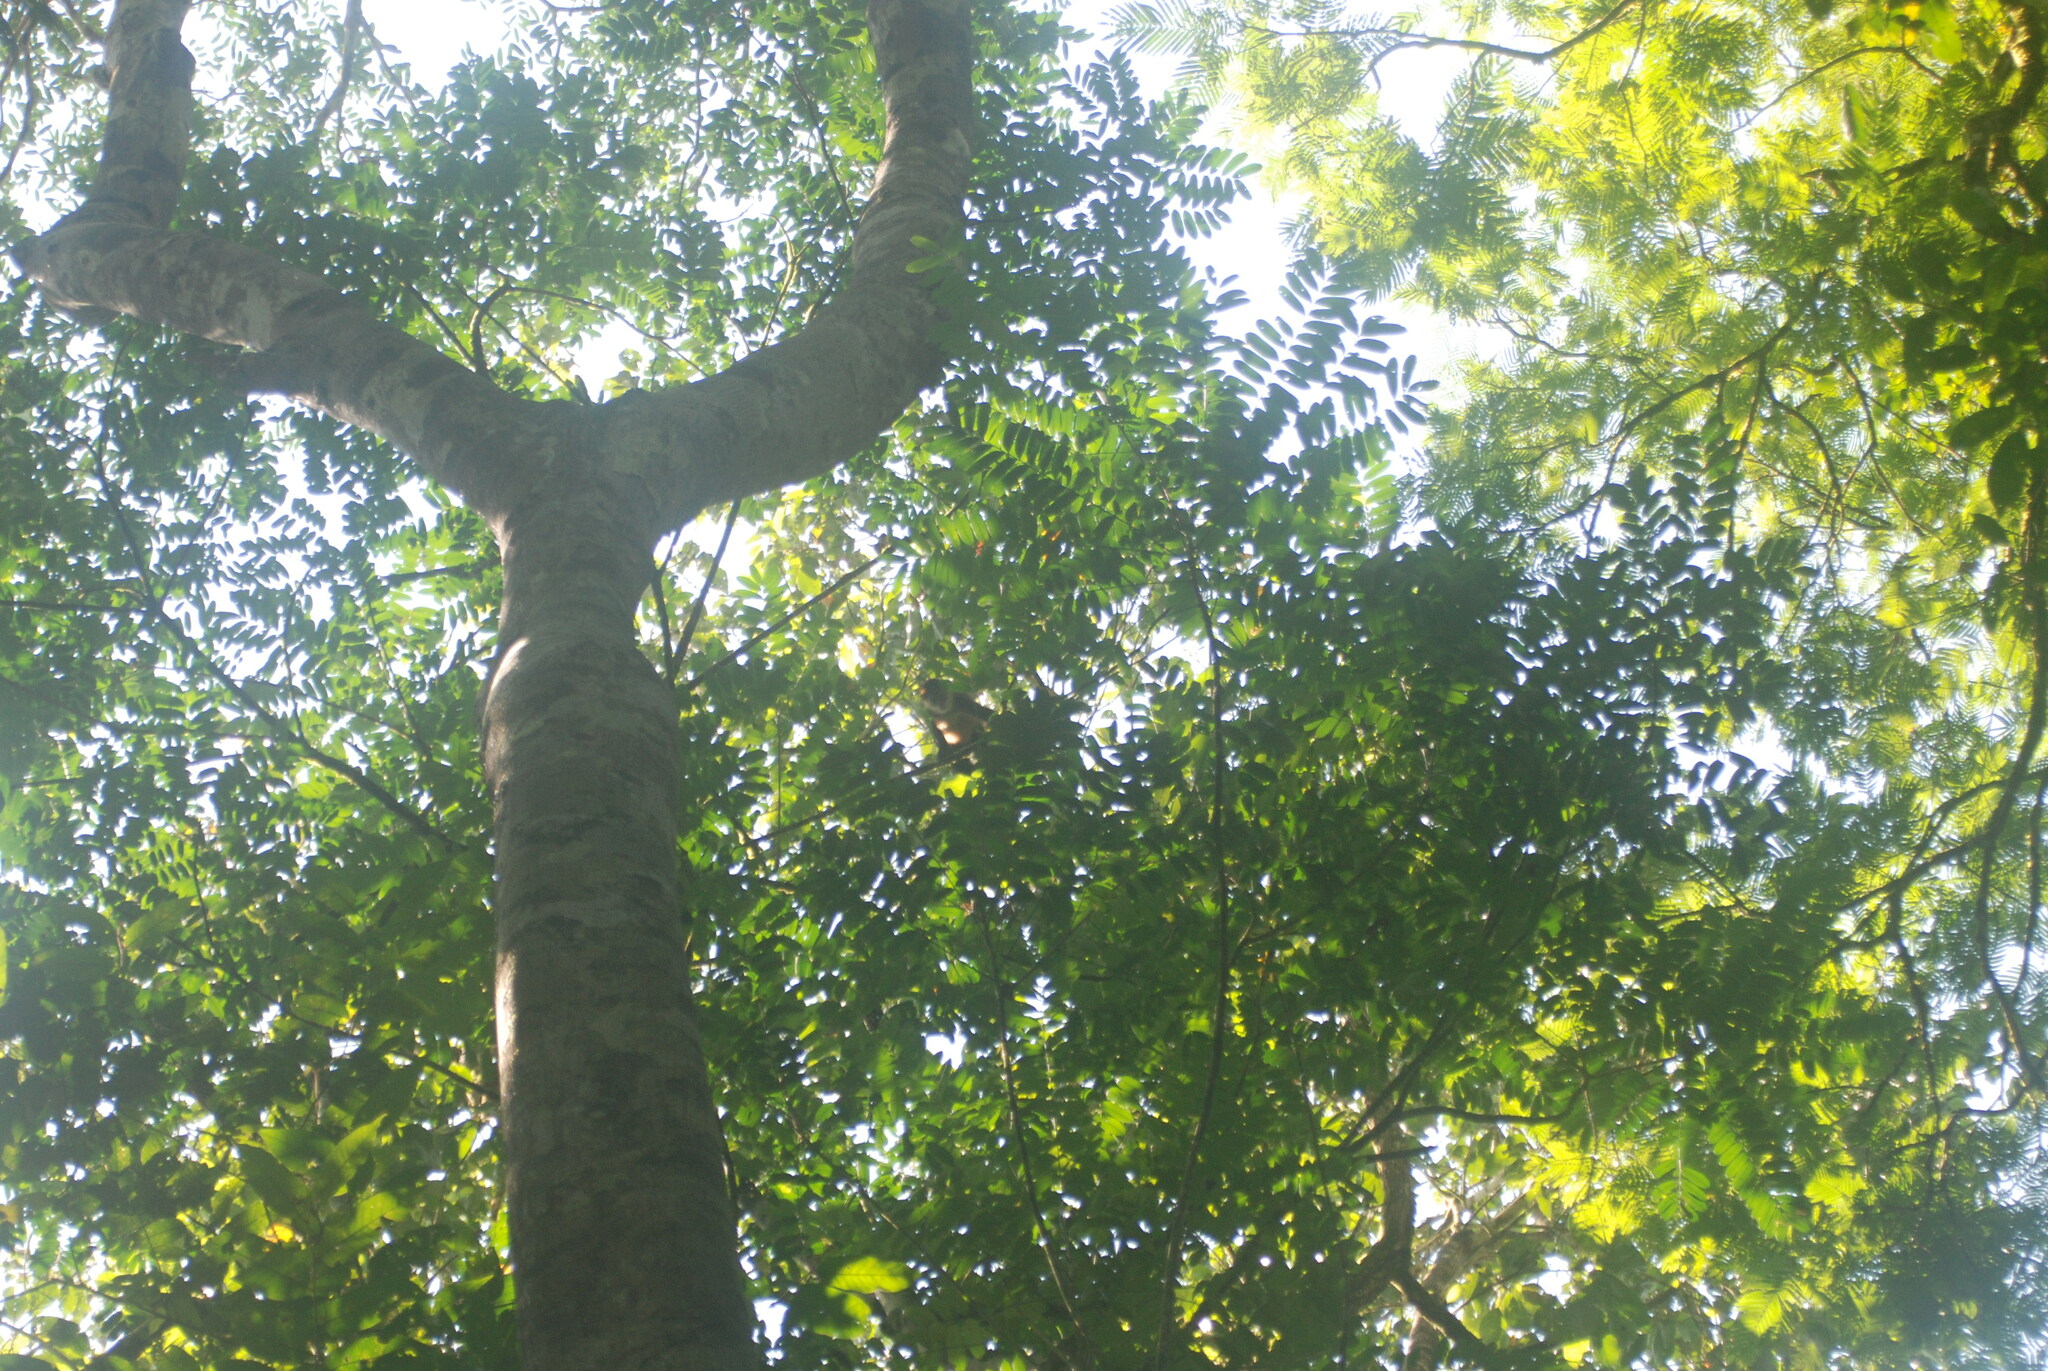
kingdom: Animalia
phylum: Chordata
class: Mammalia
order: Primates
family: Atelidae
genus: Ateles
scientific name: Ateles geoffroyi
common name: Black-handed spider monkey
